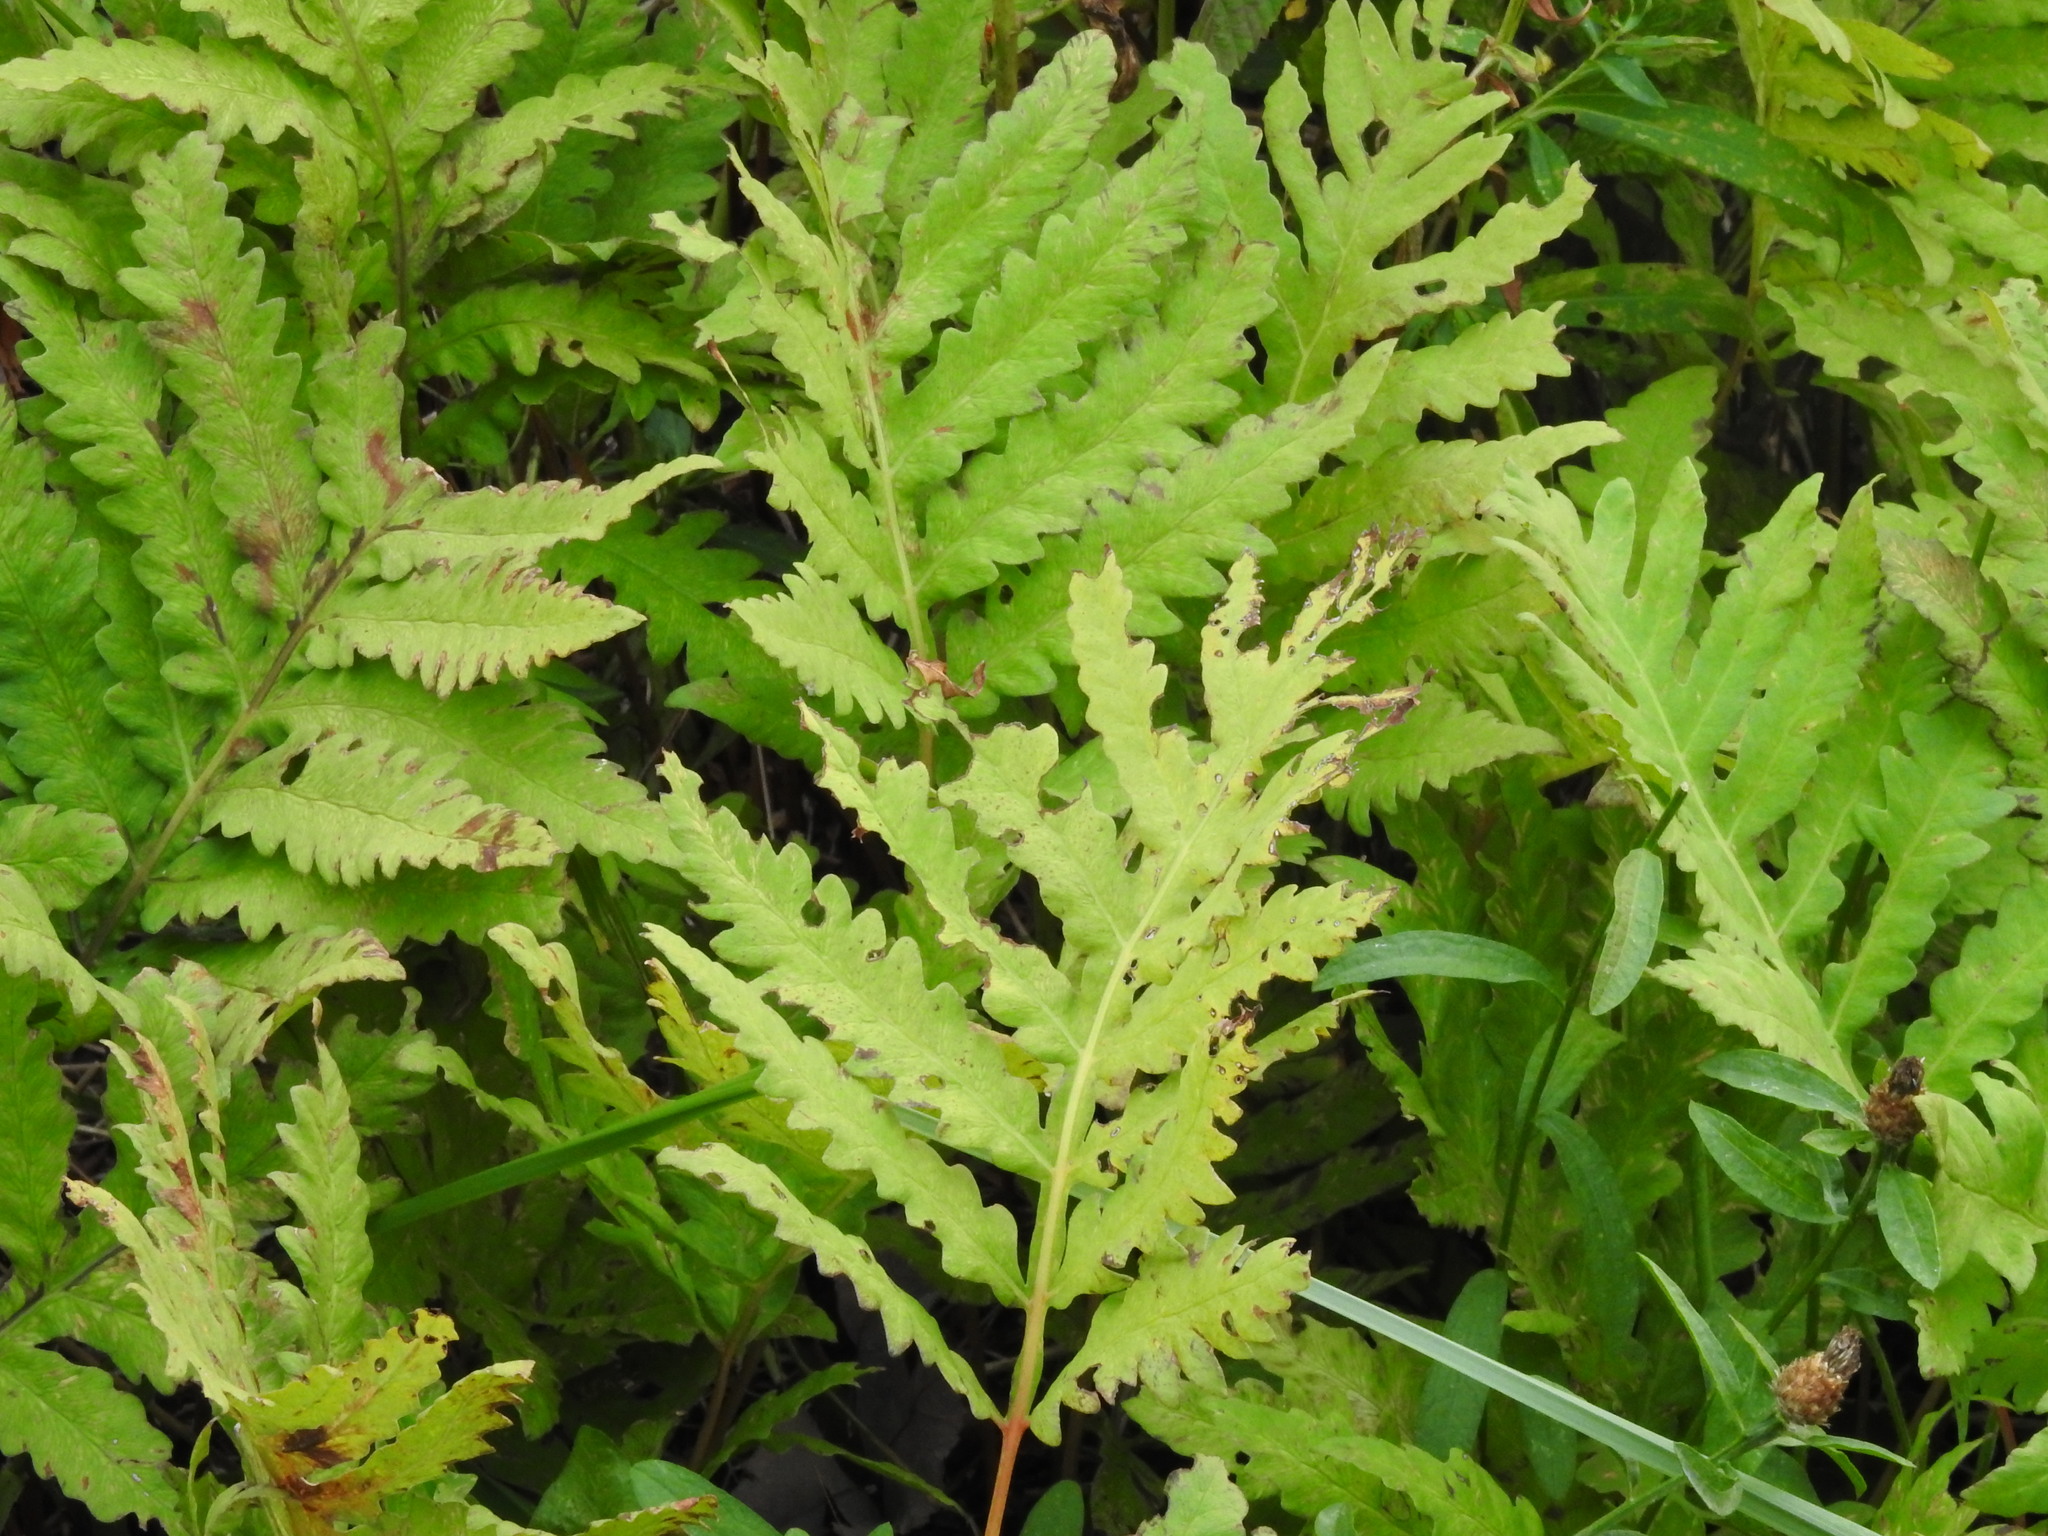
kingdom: Plantae
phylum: Tracheophyta
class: Polypodiopsida
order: Polypodiales
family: Onocleaceae
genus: Onoclea
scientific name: Onoclea sensibilis
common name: Sensitive fern
